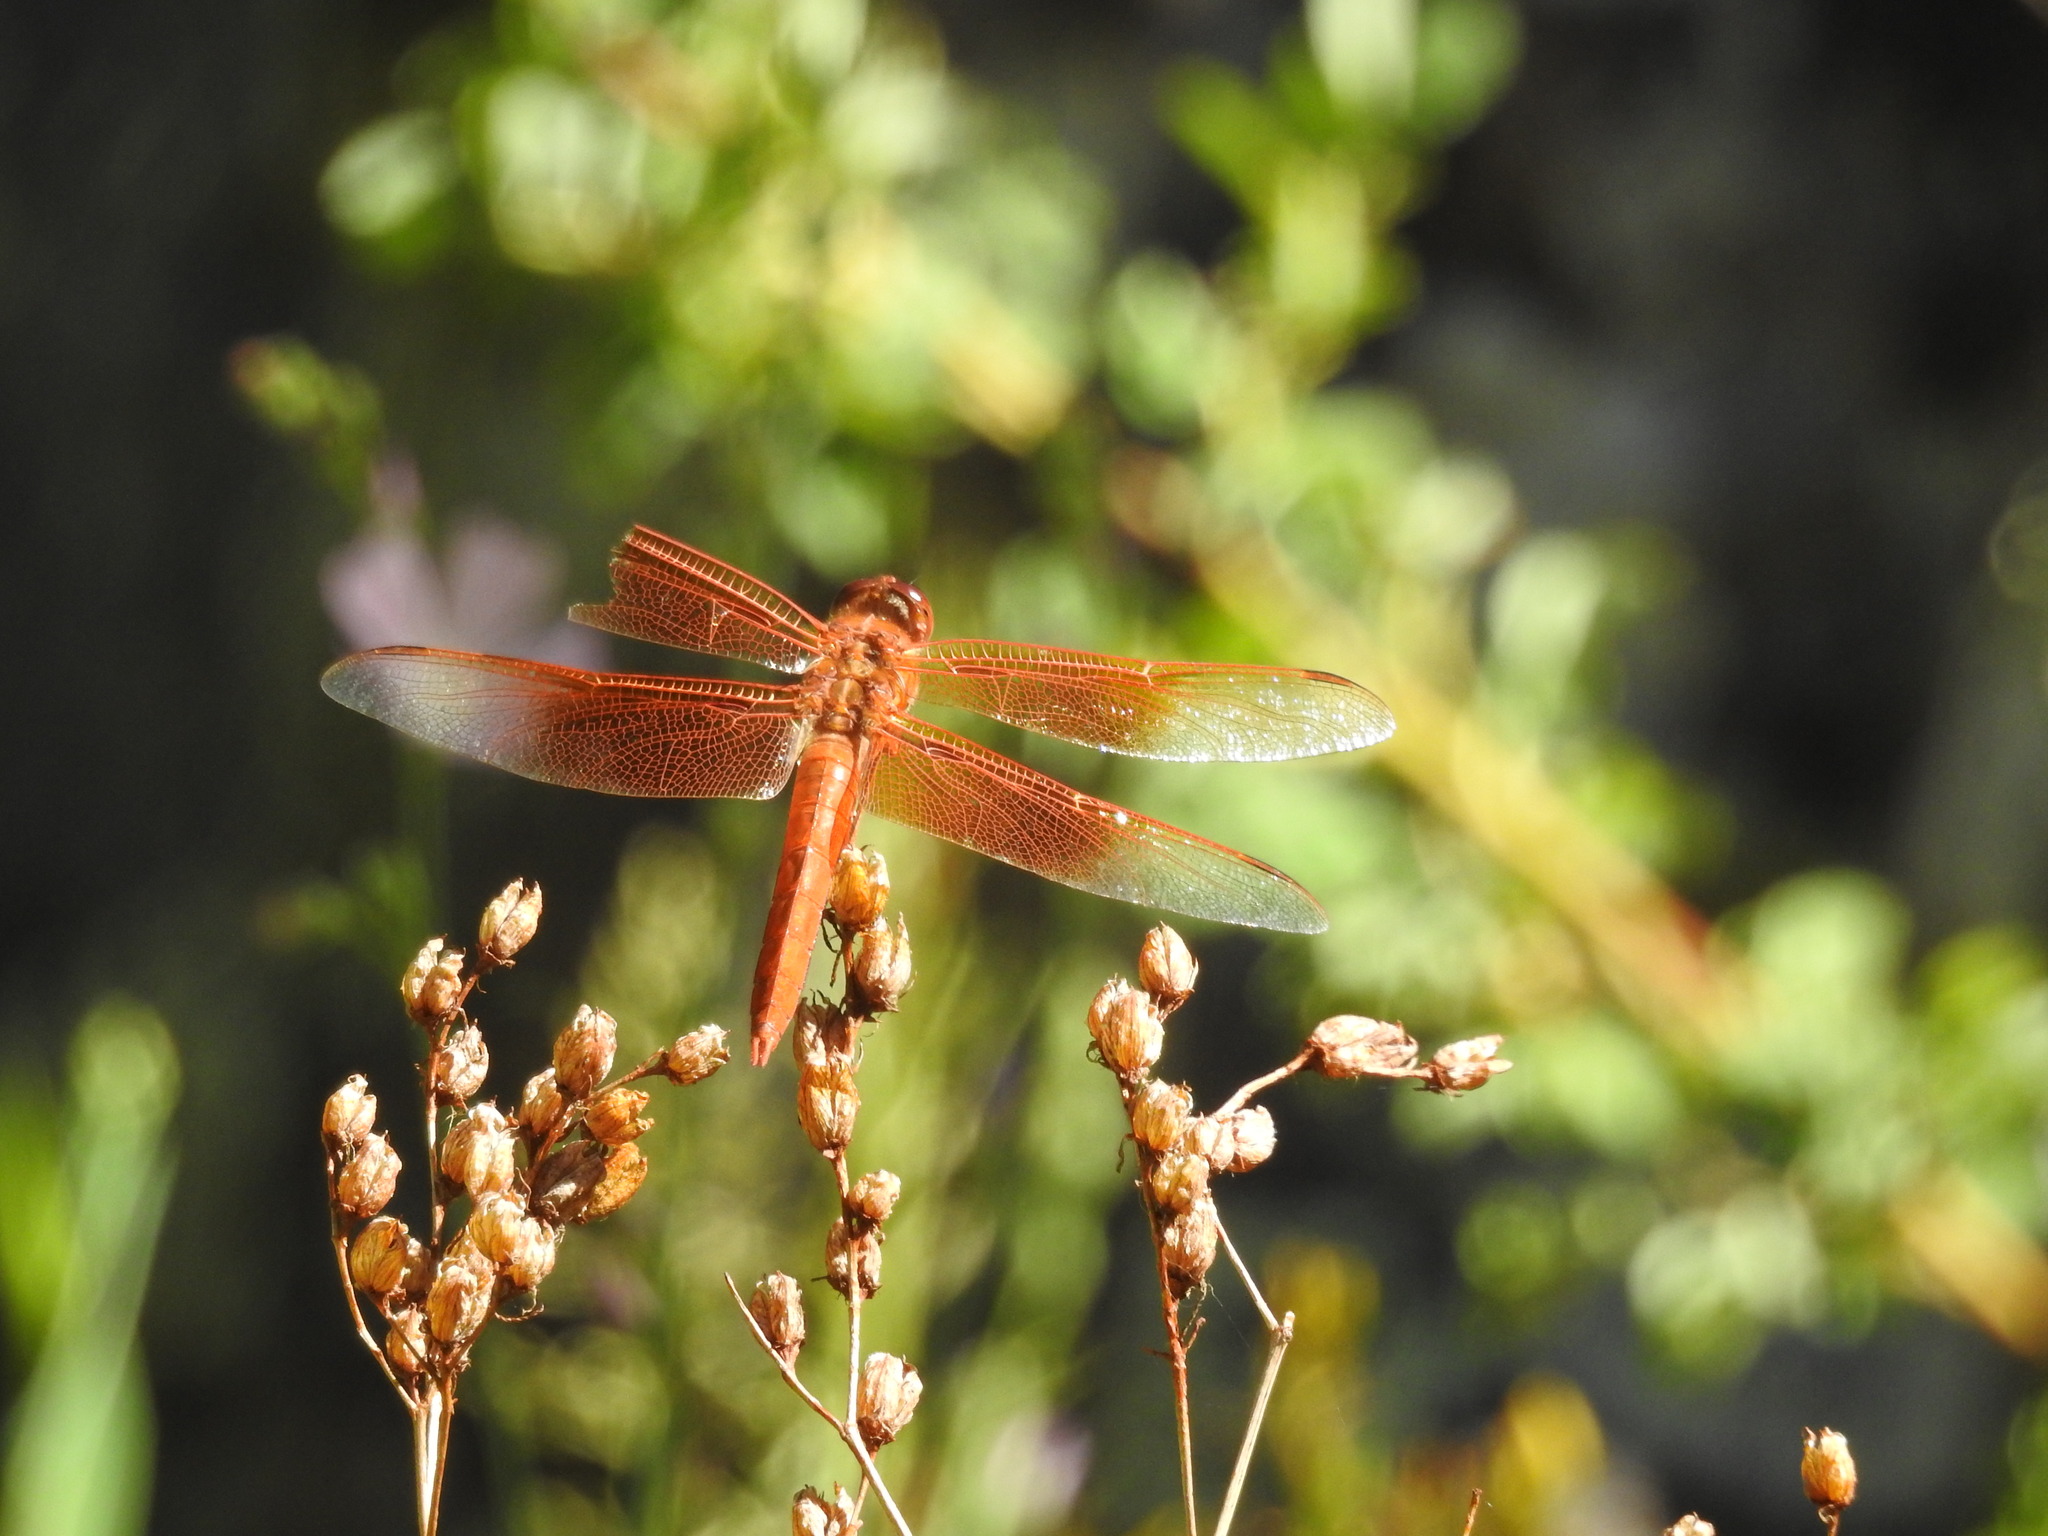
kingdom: Animalia
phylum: Arthropoda
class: Insecta
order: Odonata
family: Libellulidae
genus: Libellula
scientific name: Libellula saturata
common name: Flame skimmer
